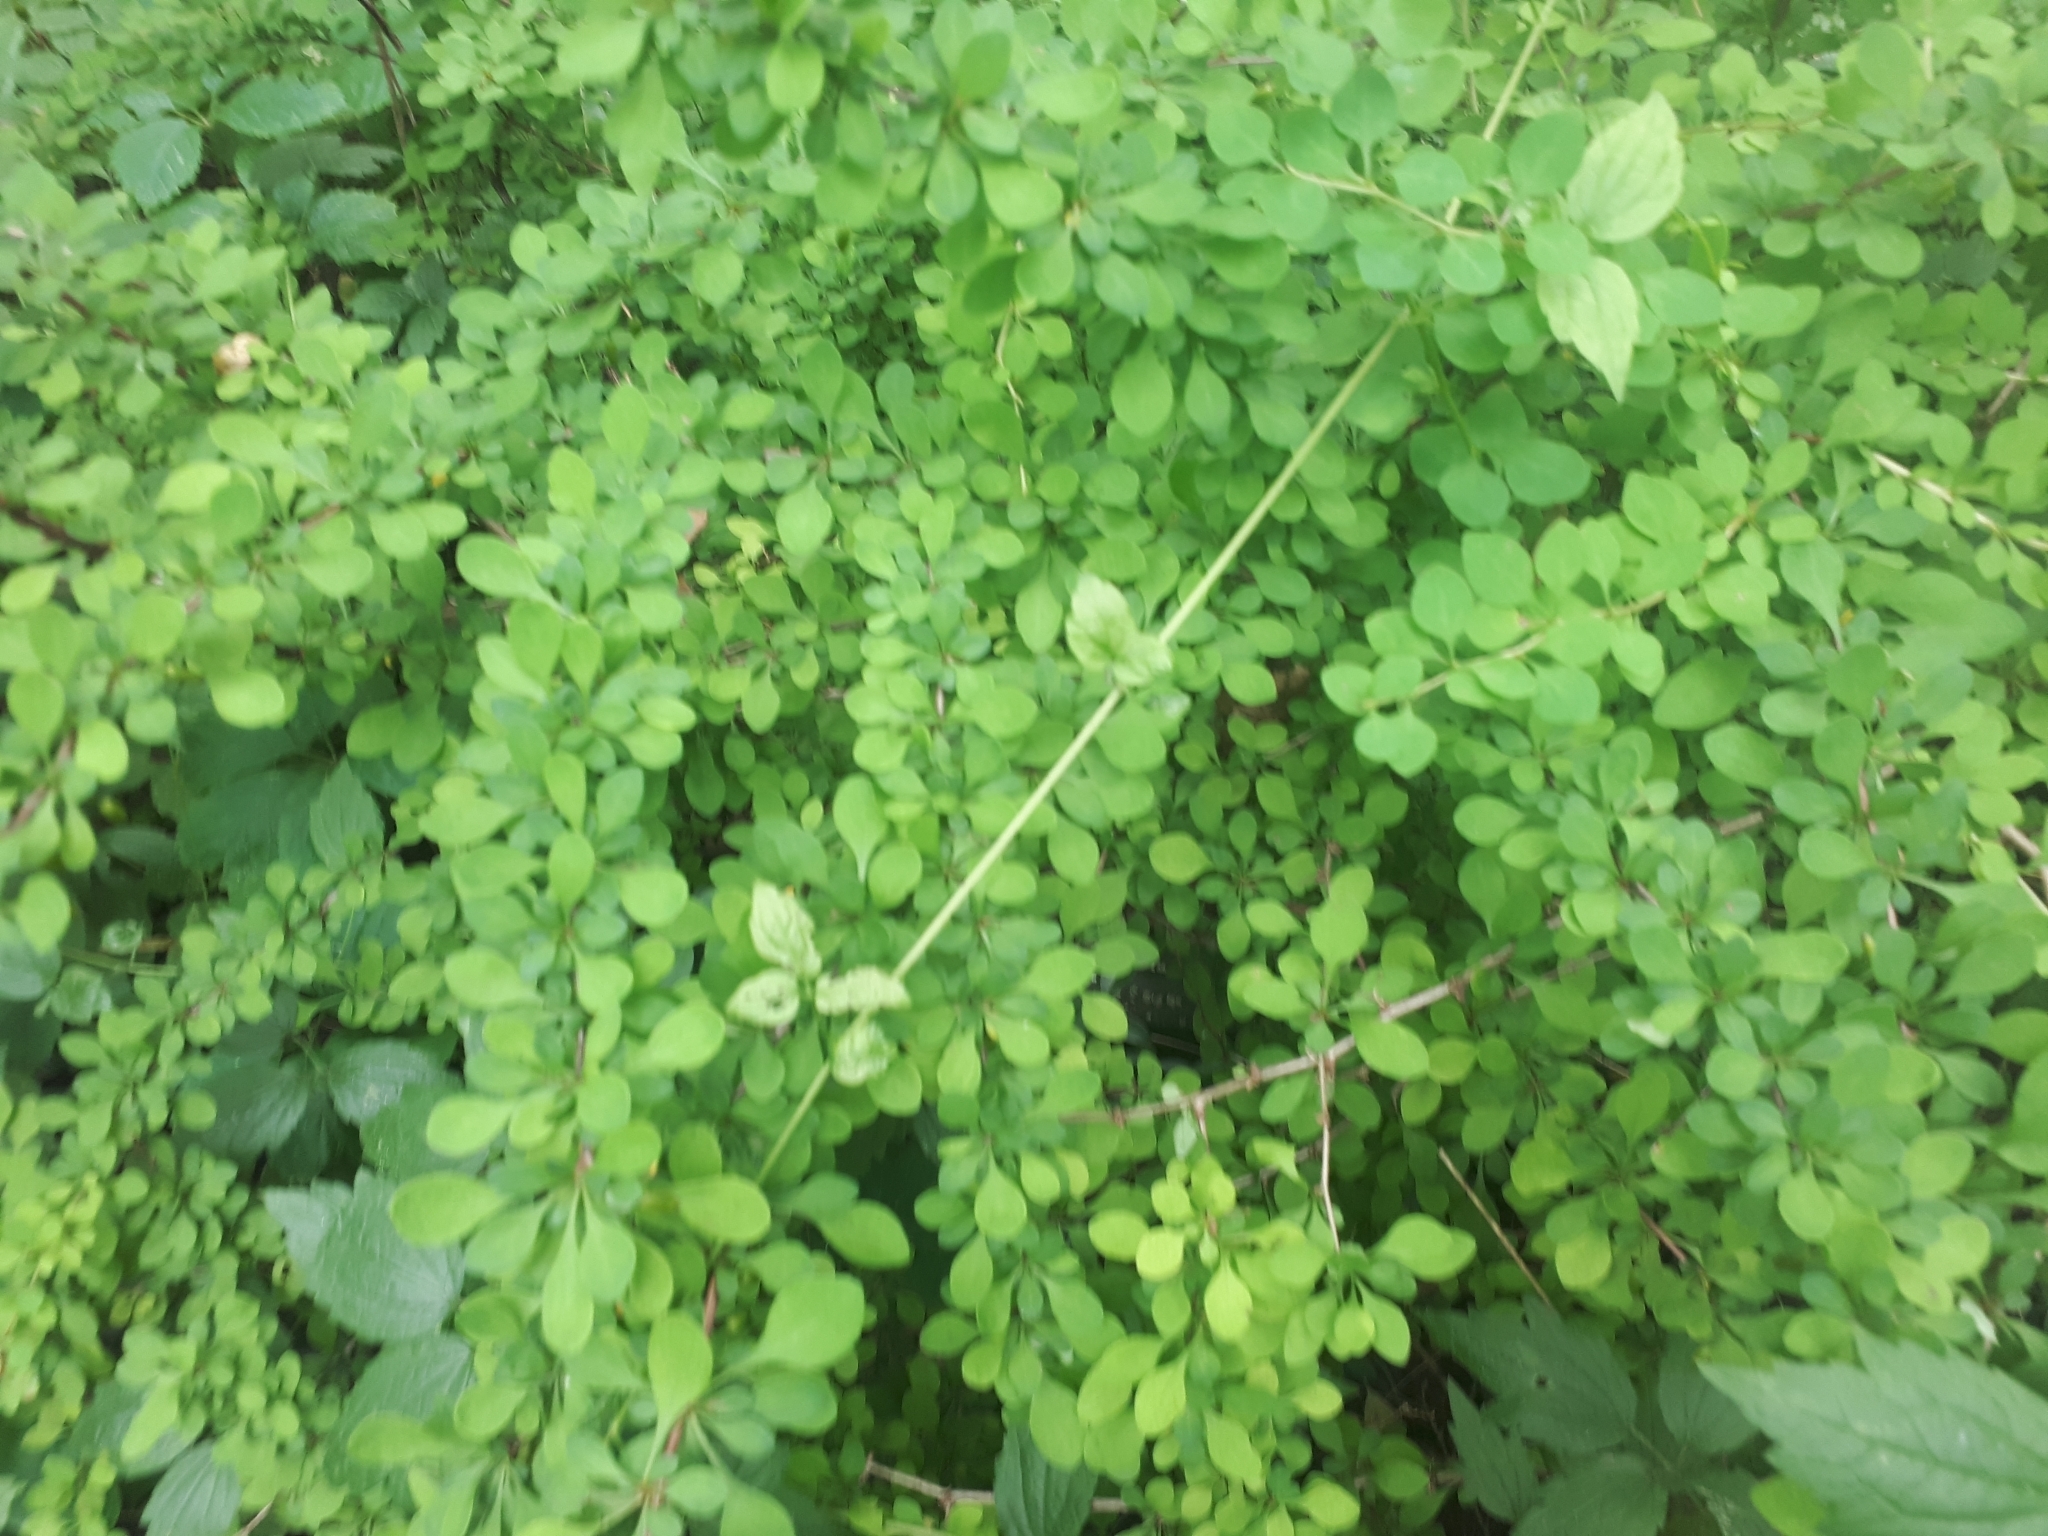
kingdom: Plantae
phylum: Tracheophyta
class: Magnoliopsida
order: Ranunculales
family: Berberidaceae
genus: Berberis
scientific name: Berberis thunbergii
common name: Japanese barberry
